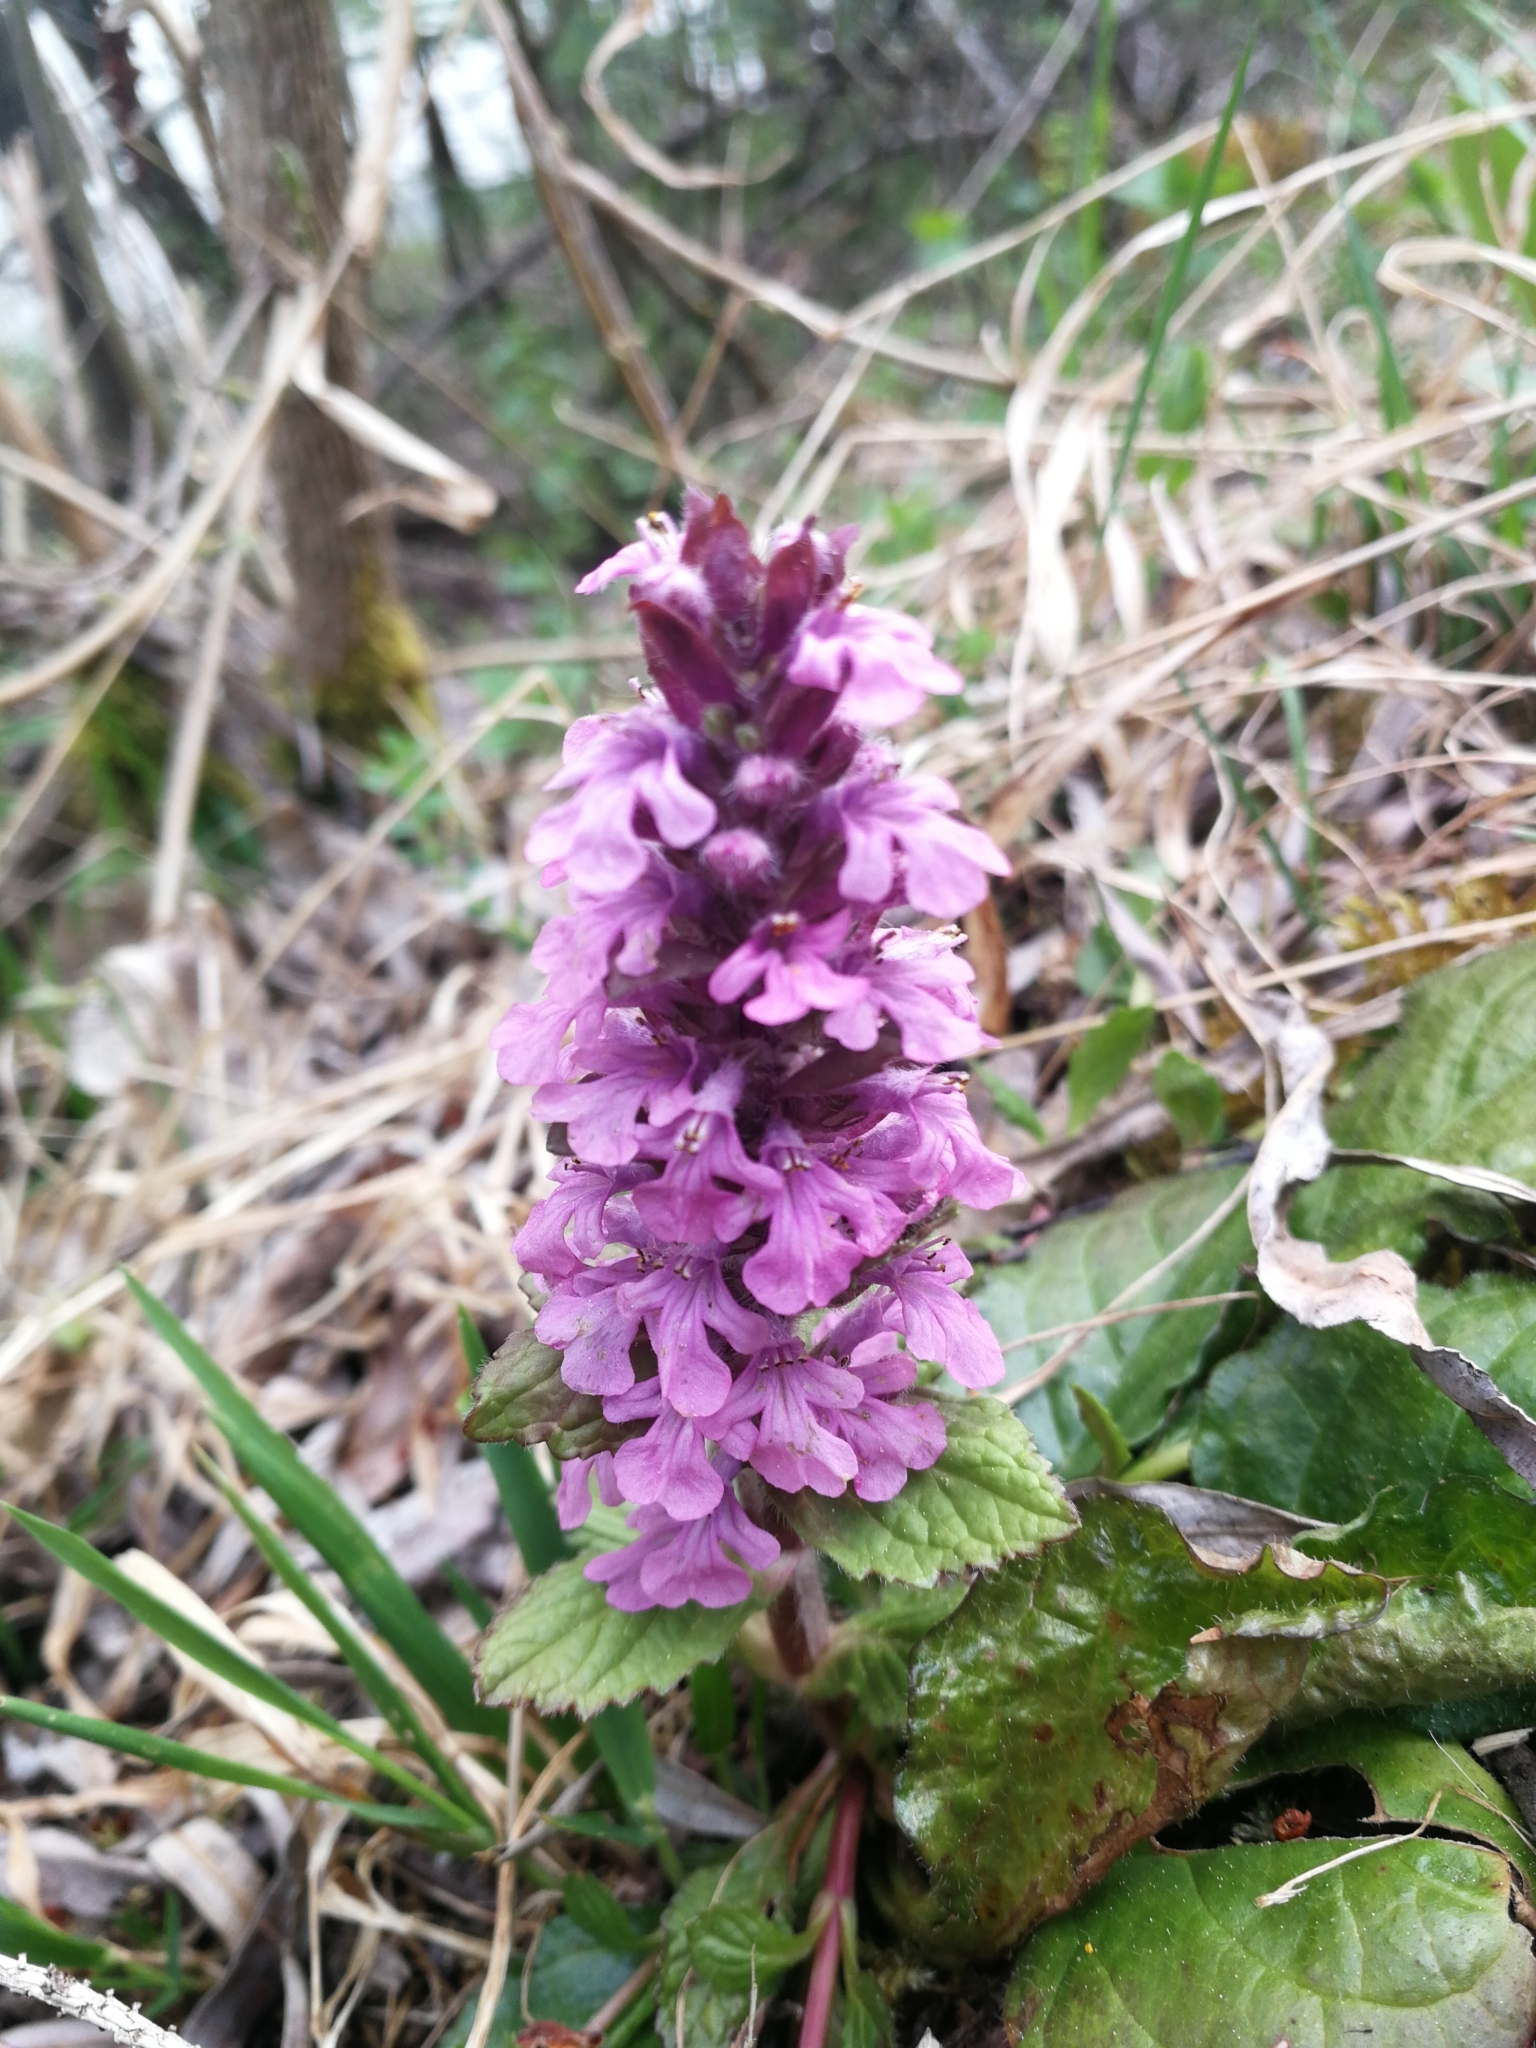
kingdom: Plantae
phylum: Tracheophyta
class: Magnoliopsida
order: Lamiales
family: Lamiaceae
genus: Ajuga
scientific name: Ajuga reptans
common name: Bugle
